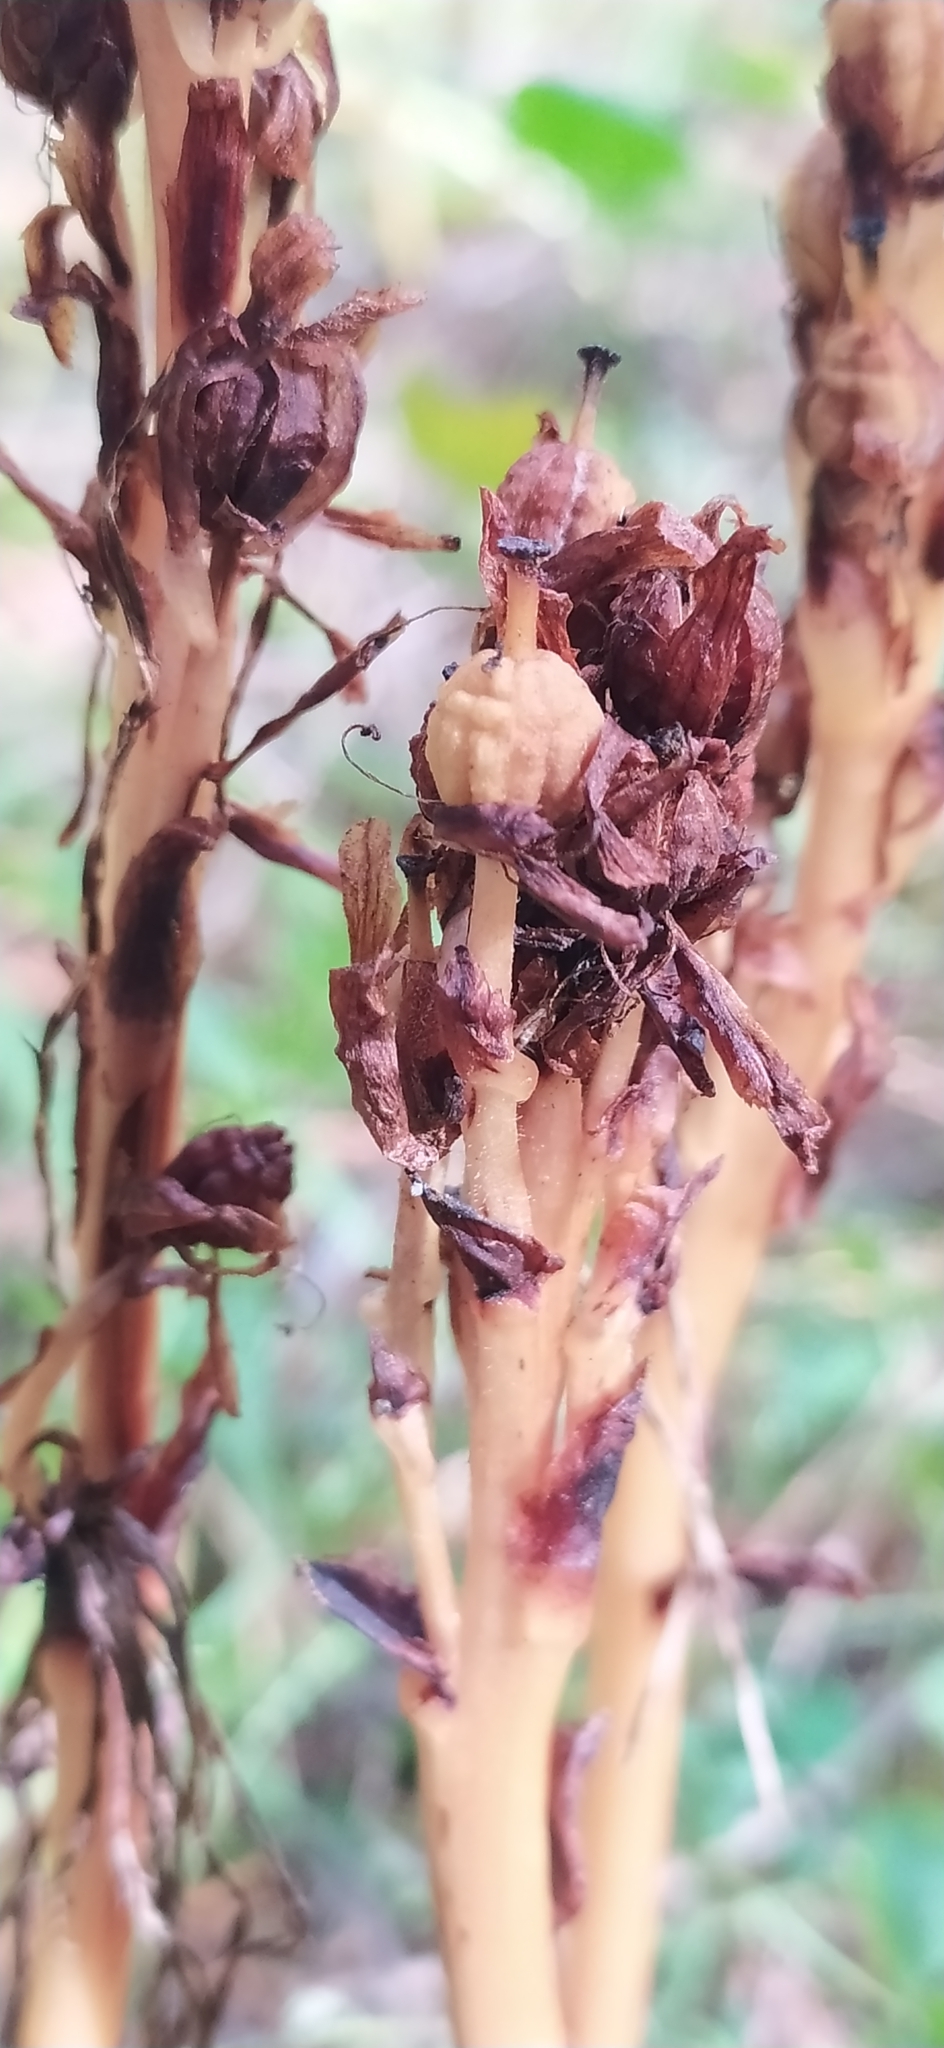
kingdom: Plantae
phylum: Tracheophyta
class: Magnoliopsida
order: Ericales
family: Ericaceae
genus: Hypopitys
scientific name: Hypopitys monotropa
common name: Yellow bird's-nest
